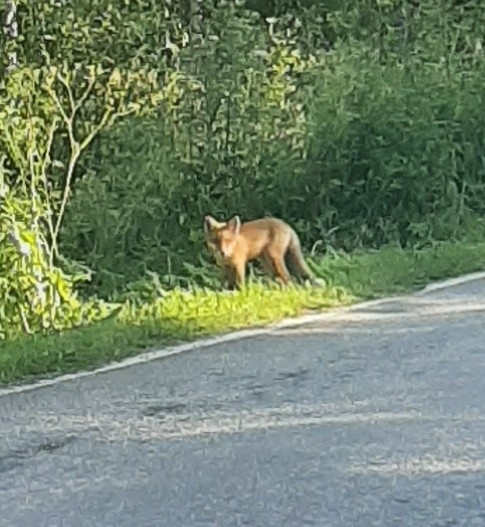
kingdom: Animalia
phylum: Chordata
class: Mammalia
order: Carnivora
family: Canidae
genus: Vulpes
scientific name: Vulpes vulpes
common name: Red fox
